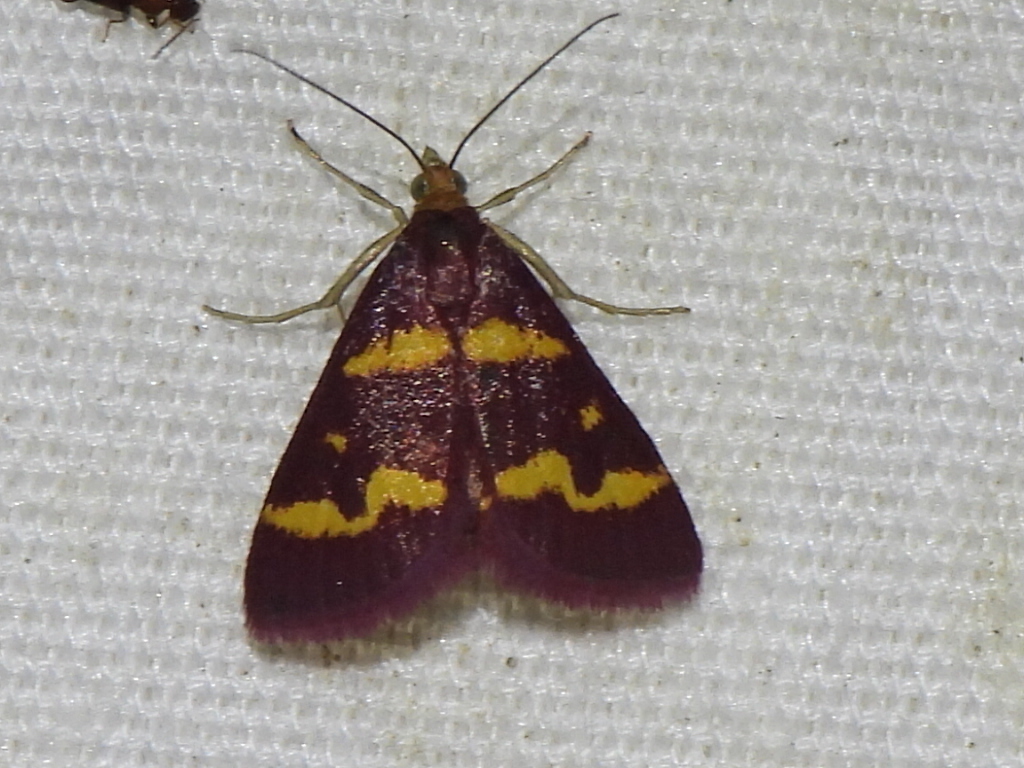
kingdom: Animalia
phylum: Arthropoda
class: Insecta
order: Lepidoptera
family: Crambidae
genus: Pyrausta
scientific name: Pyrausta tyralis
